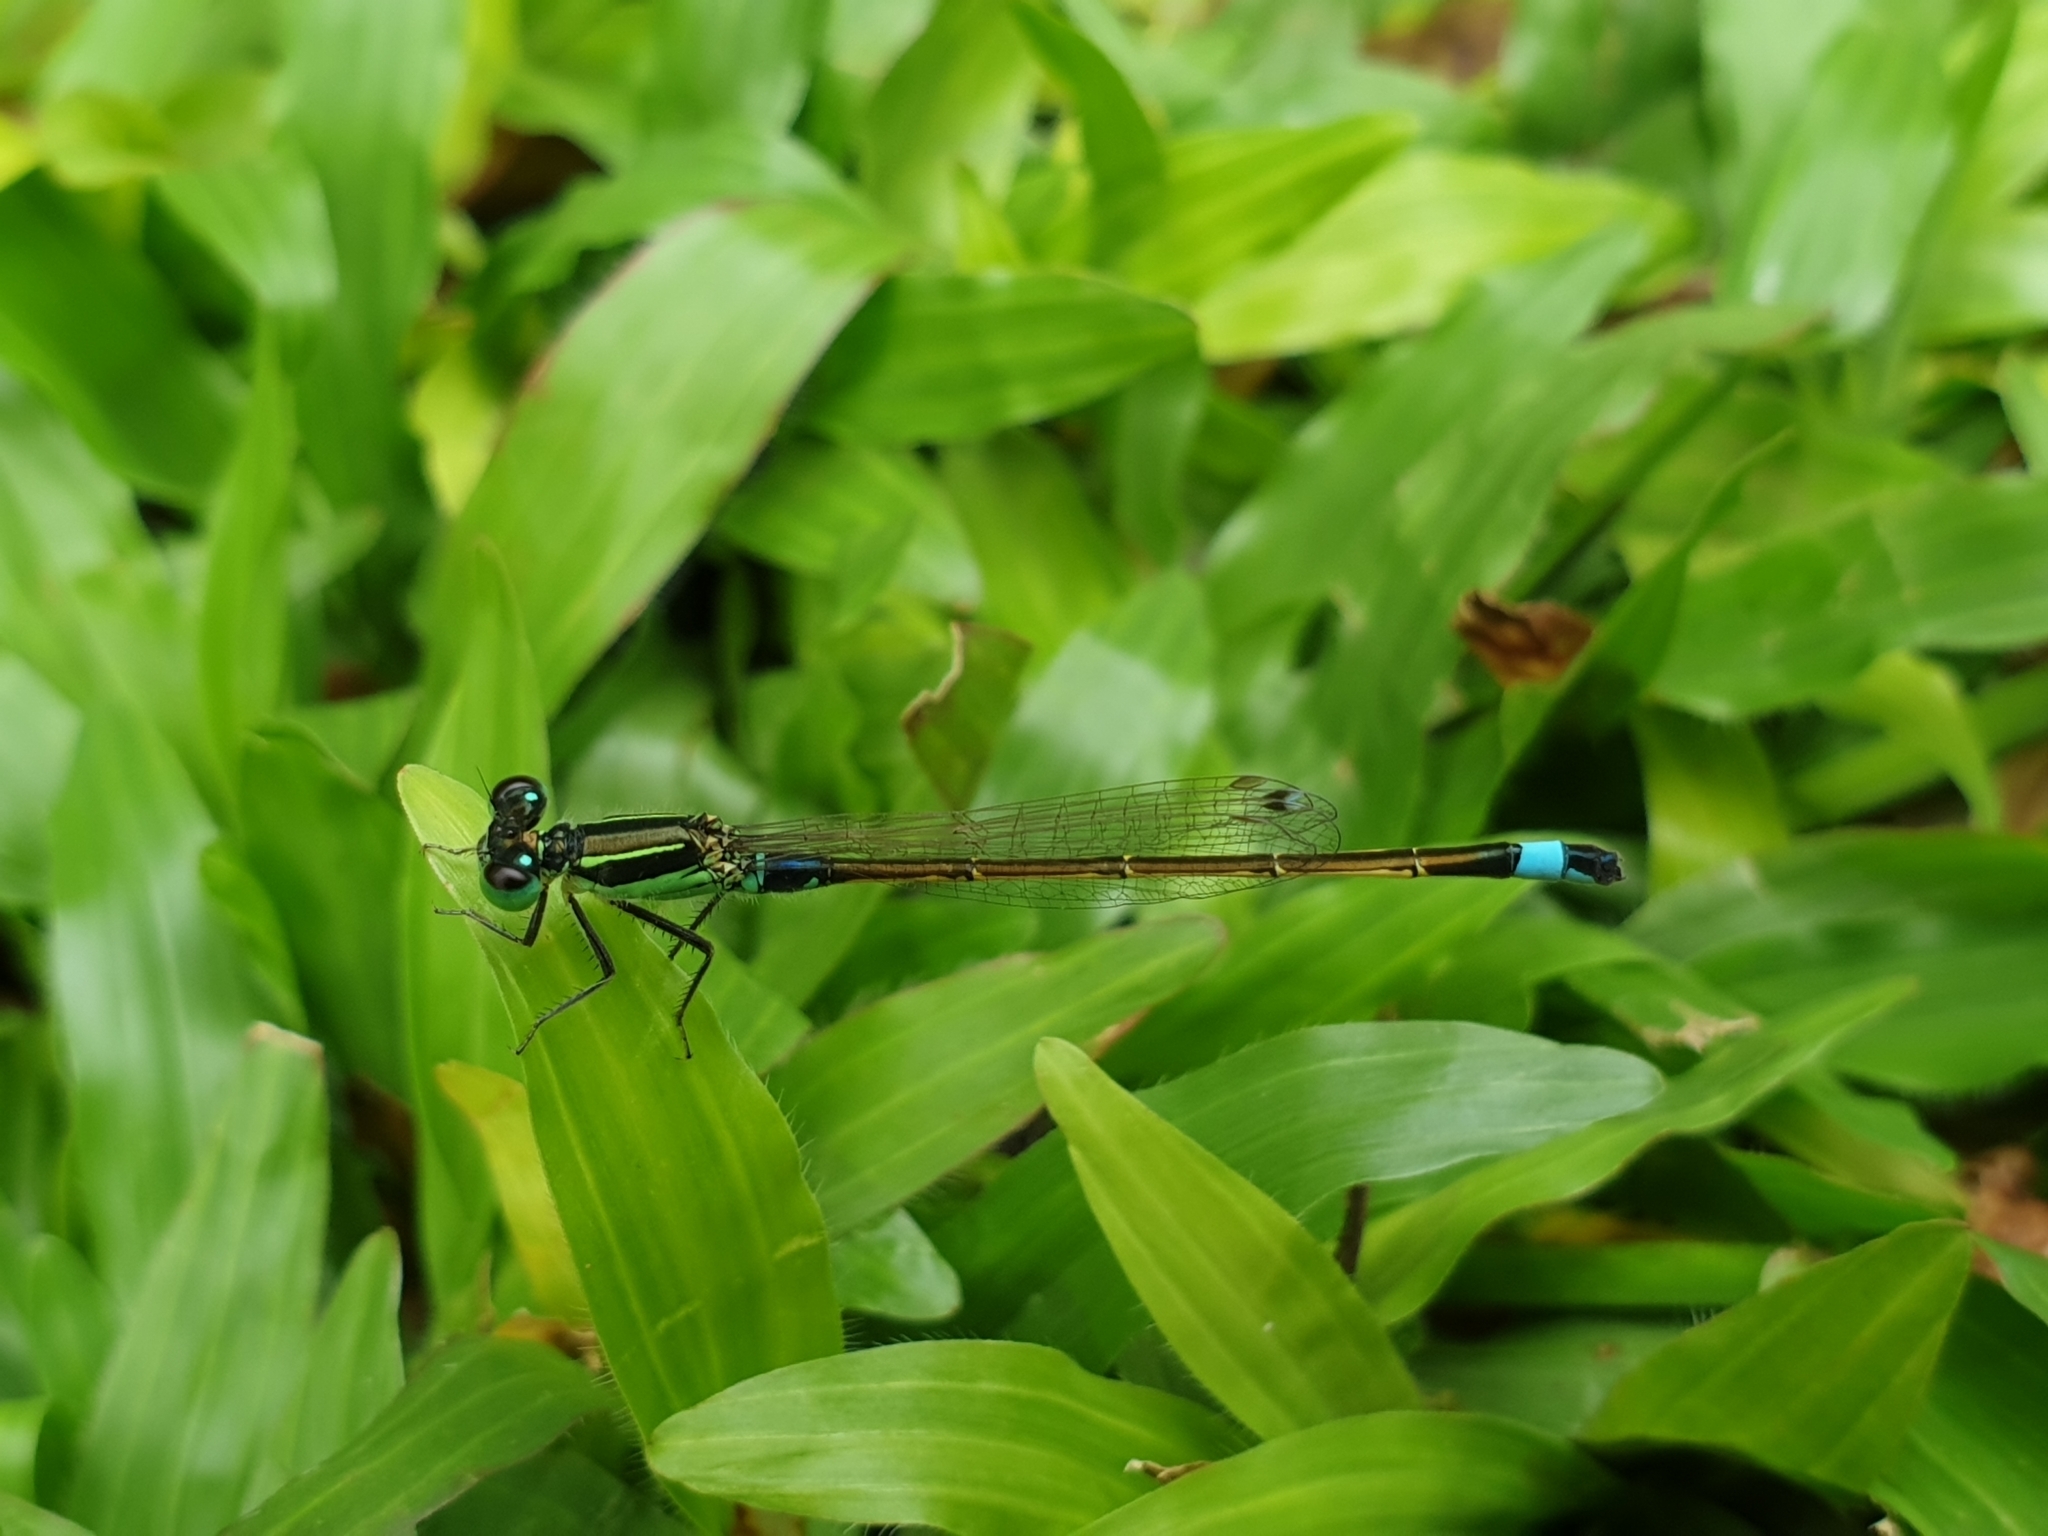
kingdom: Animalia
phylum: Arthropoda
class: Insecta
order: Odonata
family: Coenagrionidae
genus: Ischnura
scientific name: Ischnura senegalensis
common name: Tropical bluetail
